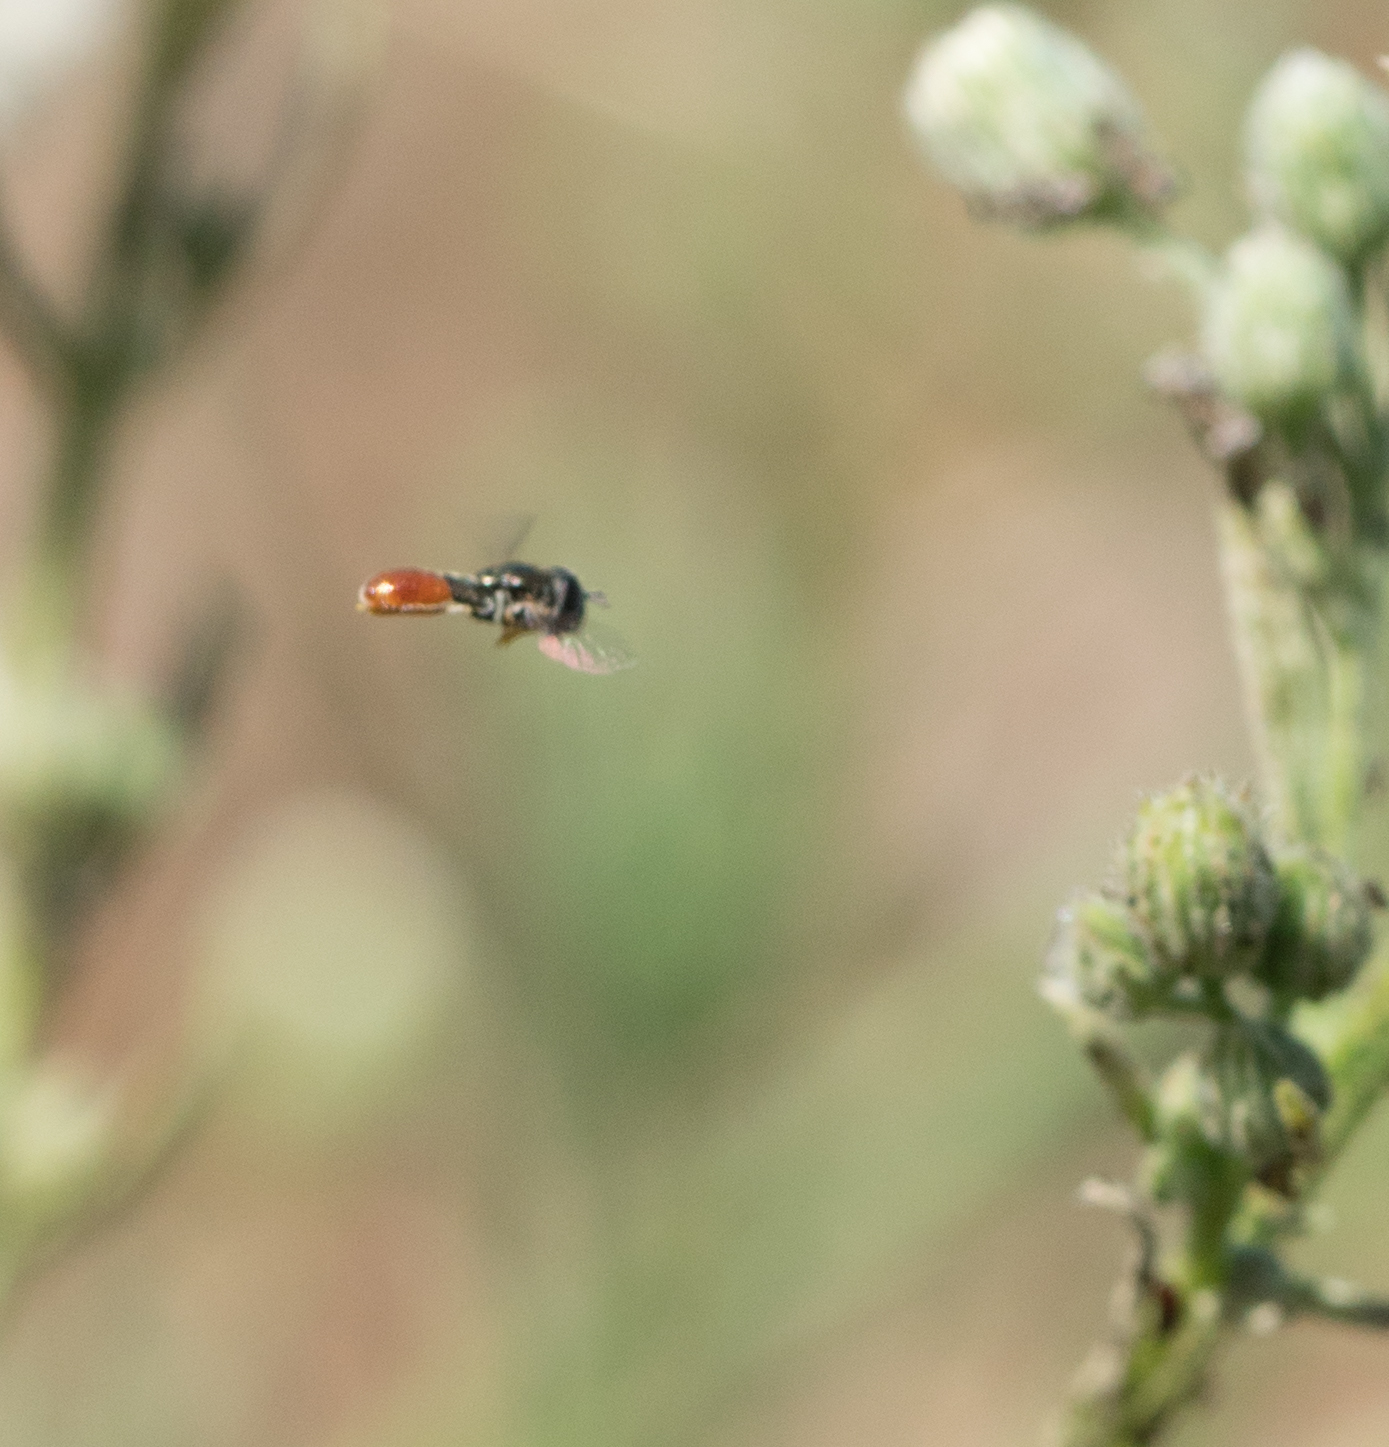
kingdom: Animalia
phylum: Arthropoda
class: Insecta
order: Diptera
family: Syrphidae
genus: Paragus
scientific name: Paragus haemorrhous
